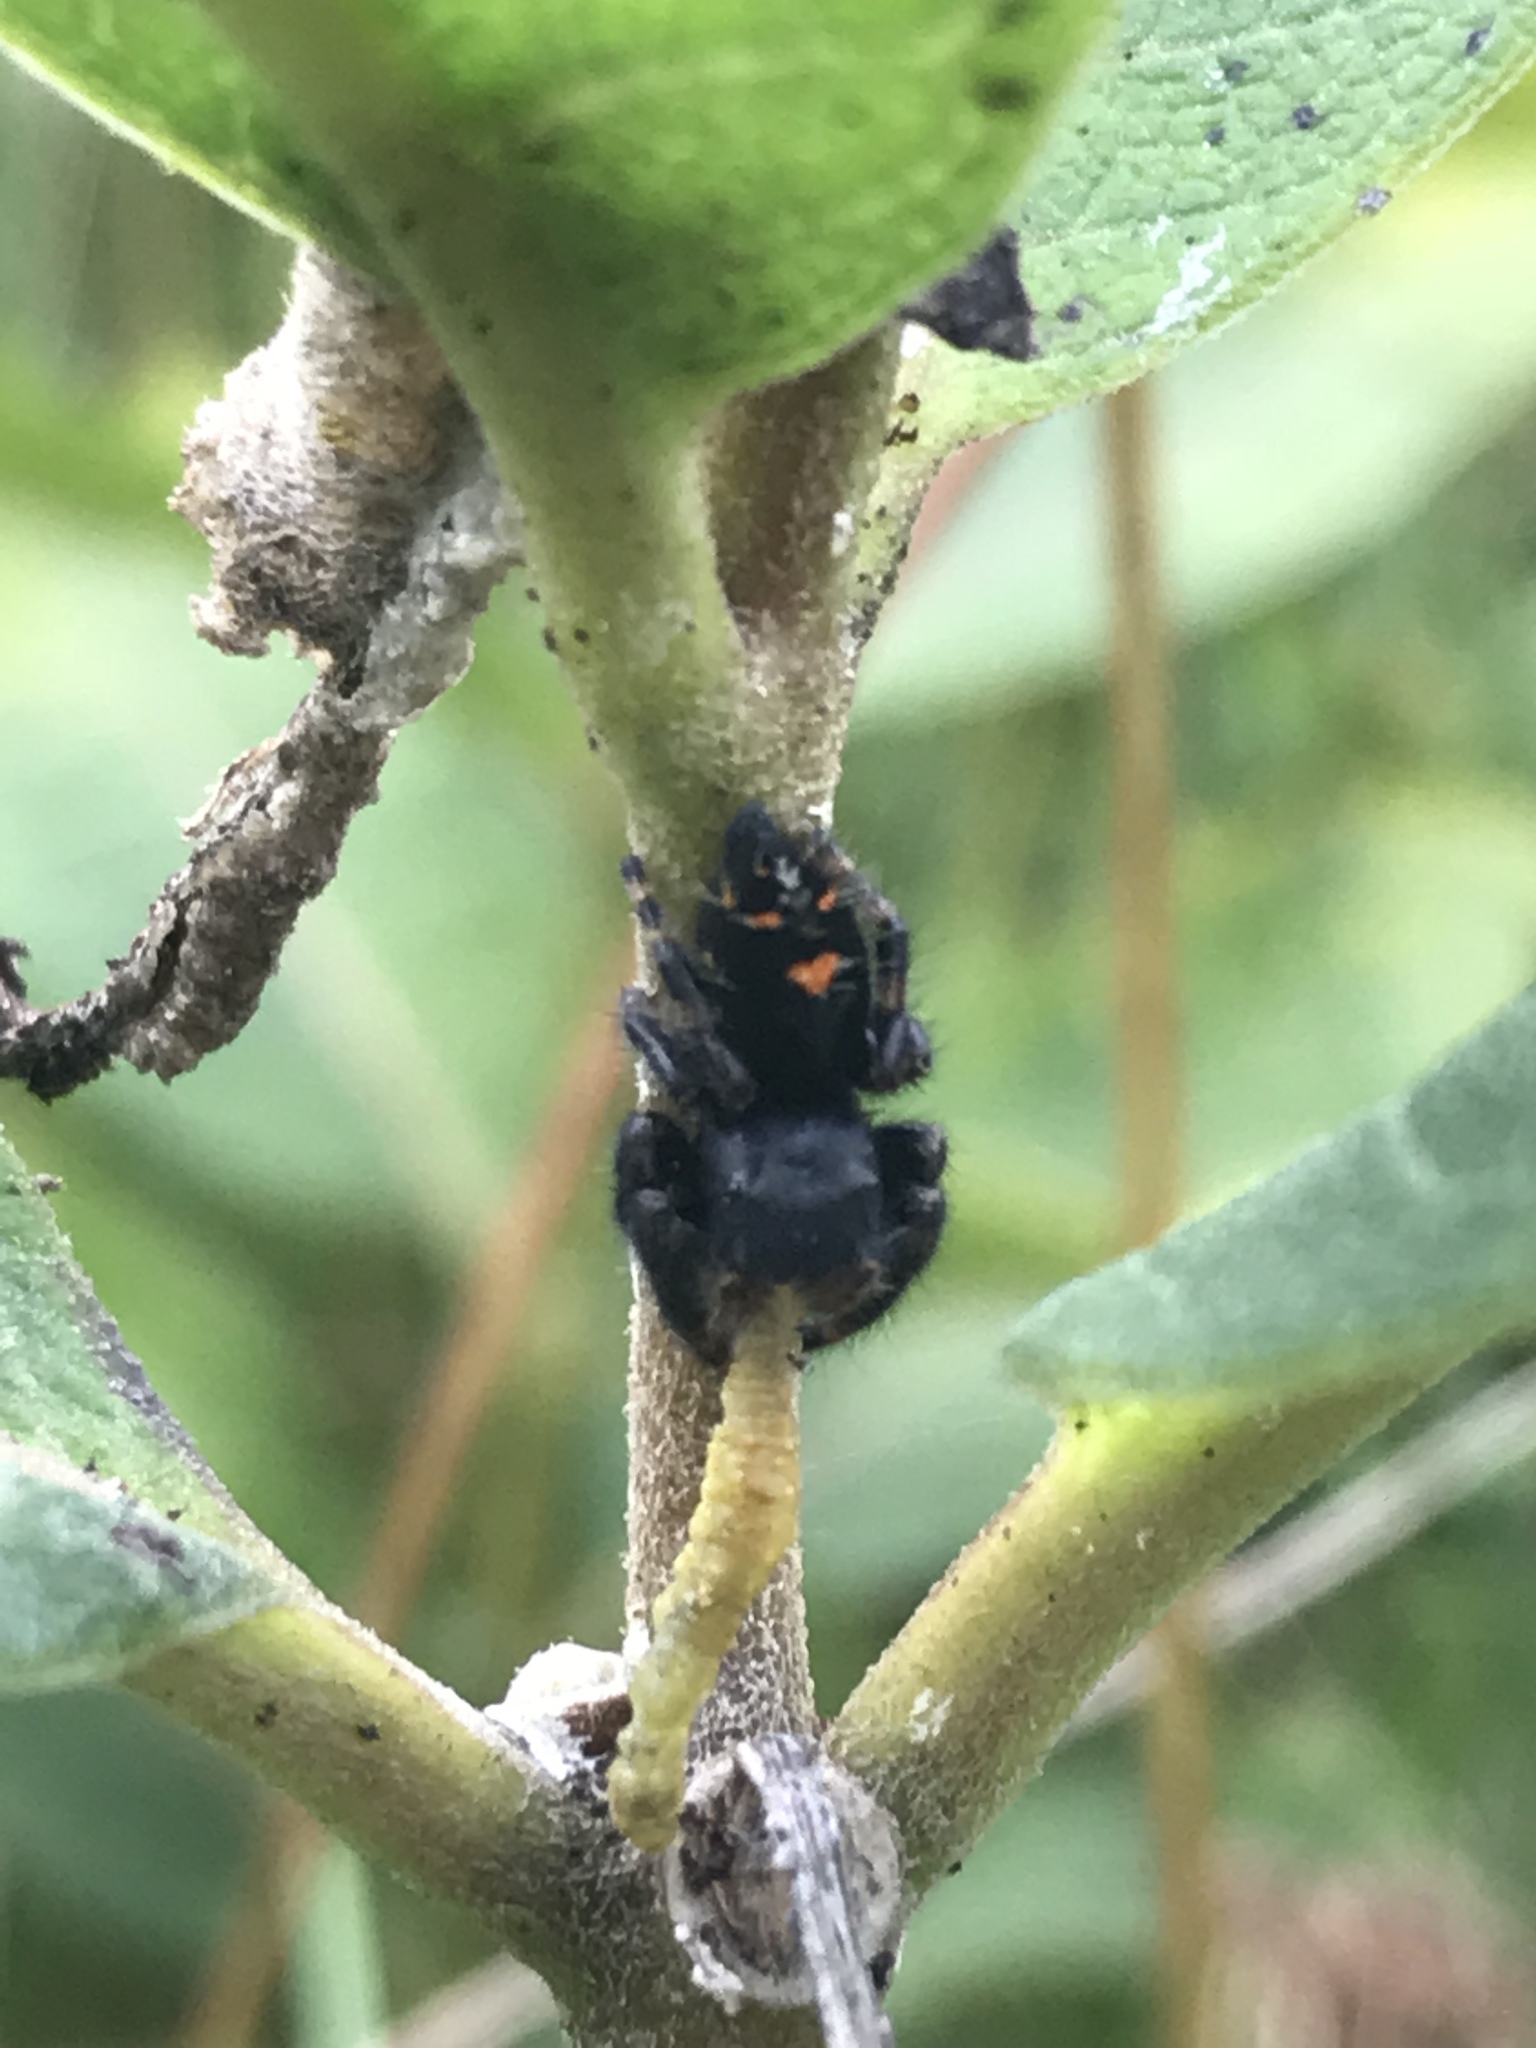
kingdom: Animalia
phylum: Arthropoda
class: Arachnida
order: Araneae
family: Salticidae
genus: Phidippus
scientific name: Phidippus audax
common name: Bold jumper
